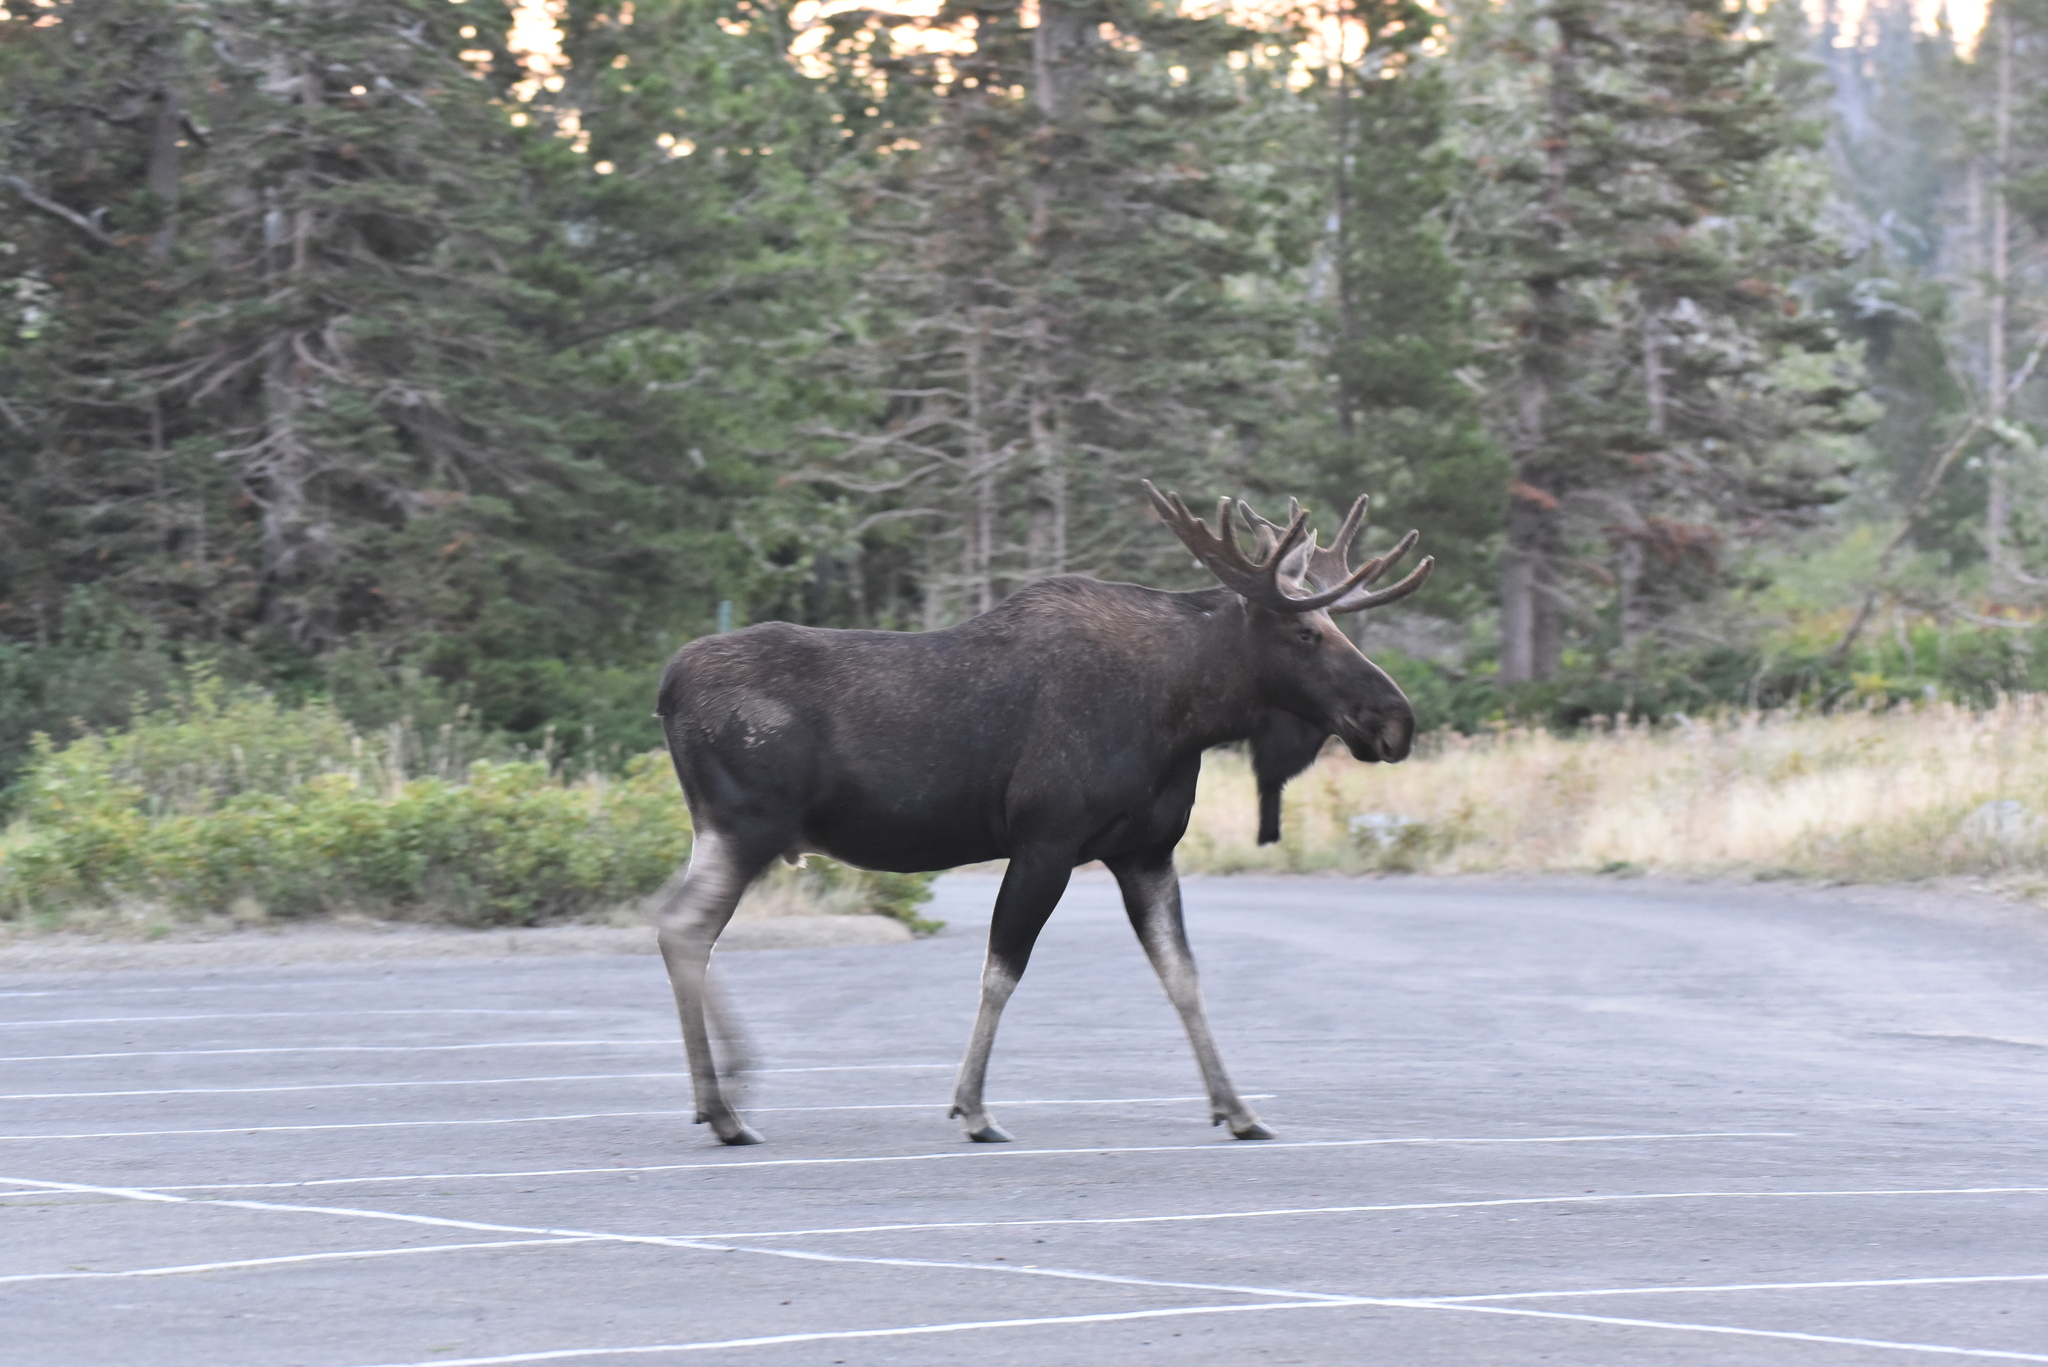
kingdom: Animalia
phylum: Chordata
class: Mammalia
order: Artiodactyla
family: Cervidae
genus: Alces
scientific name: Alces americanus
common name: Moose
